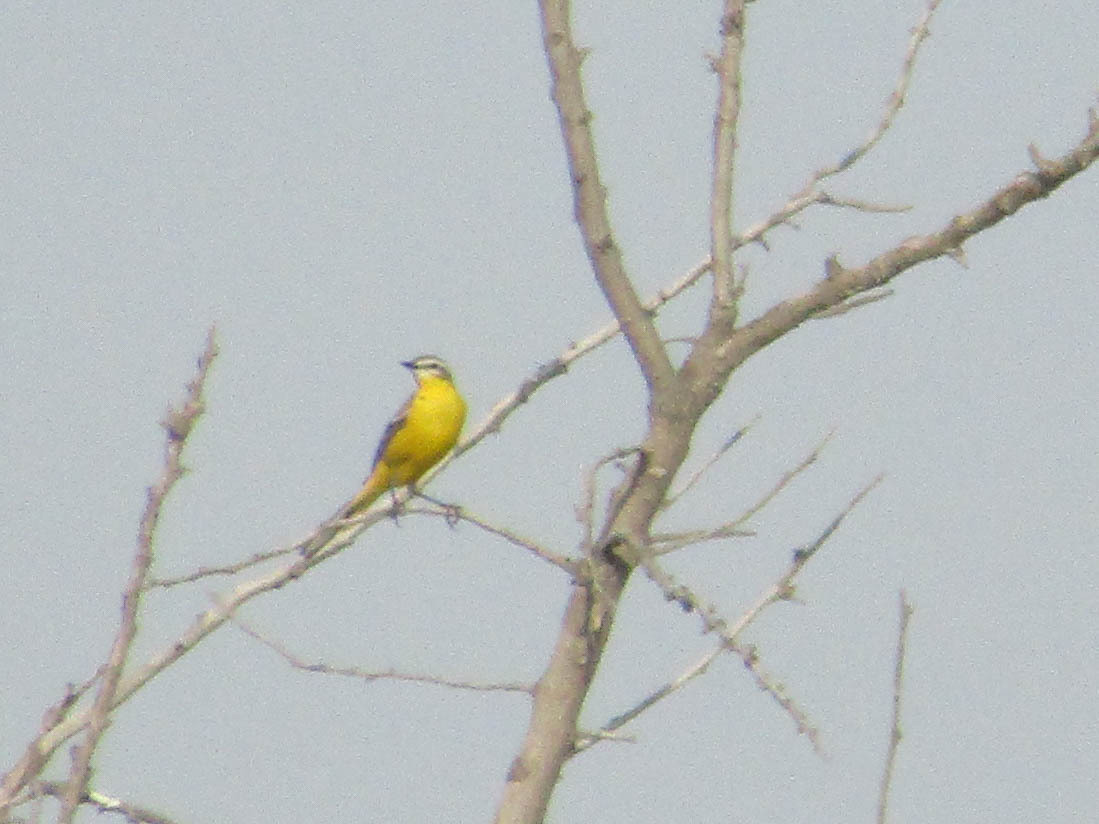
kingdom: Animalia
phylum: Chordata
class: Aves
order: Passeriformes
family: Motacillidae
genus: Motacilla
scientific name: Motacilla flava
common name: Western yellow wagtail
